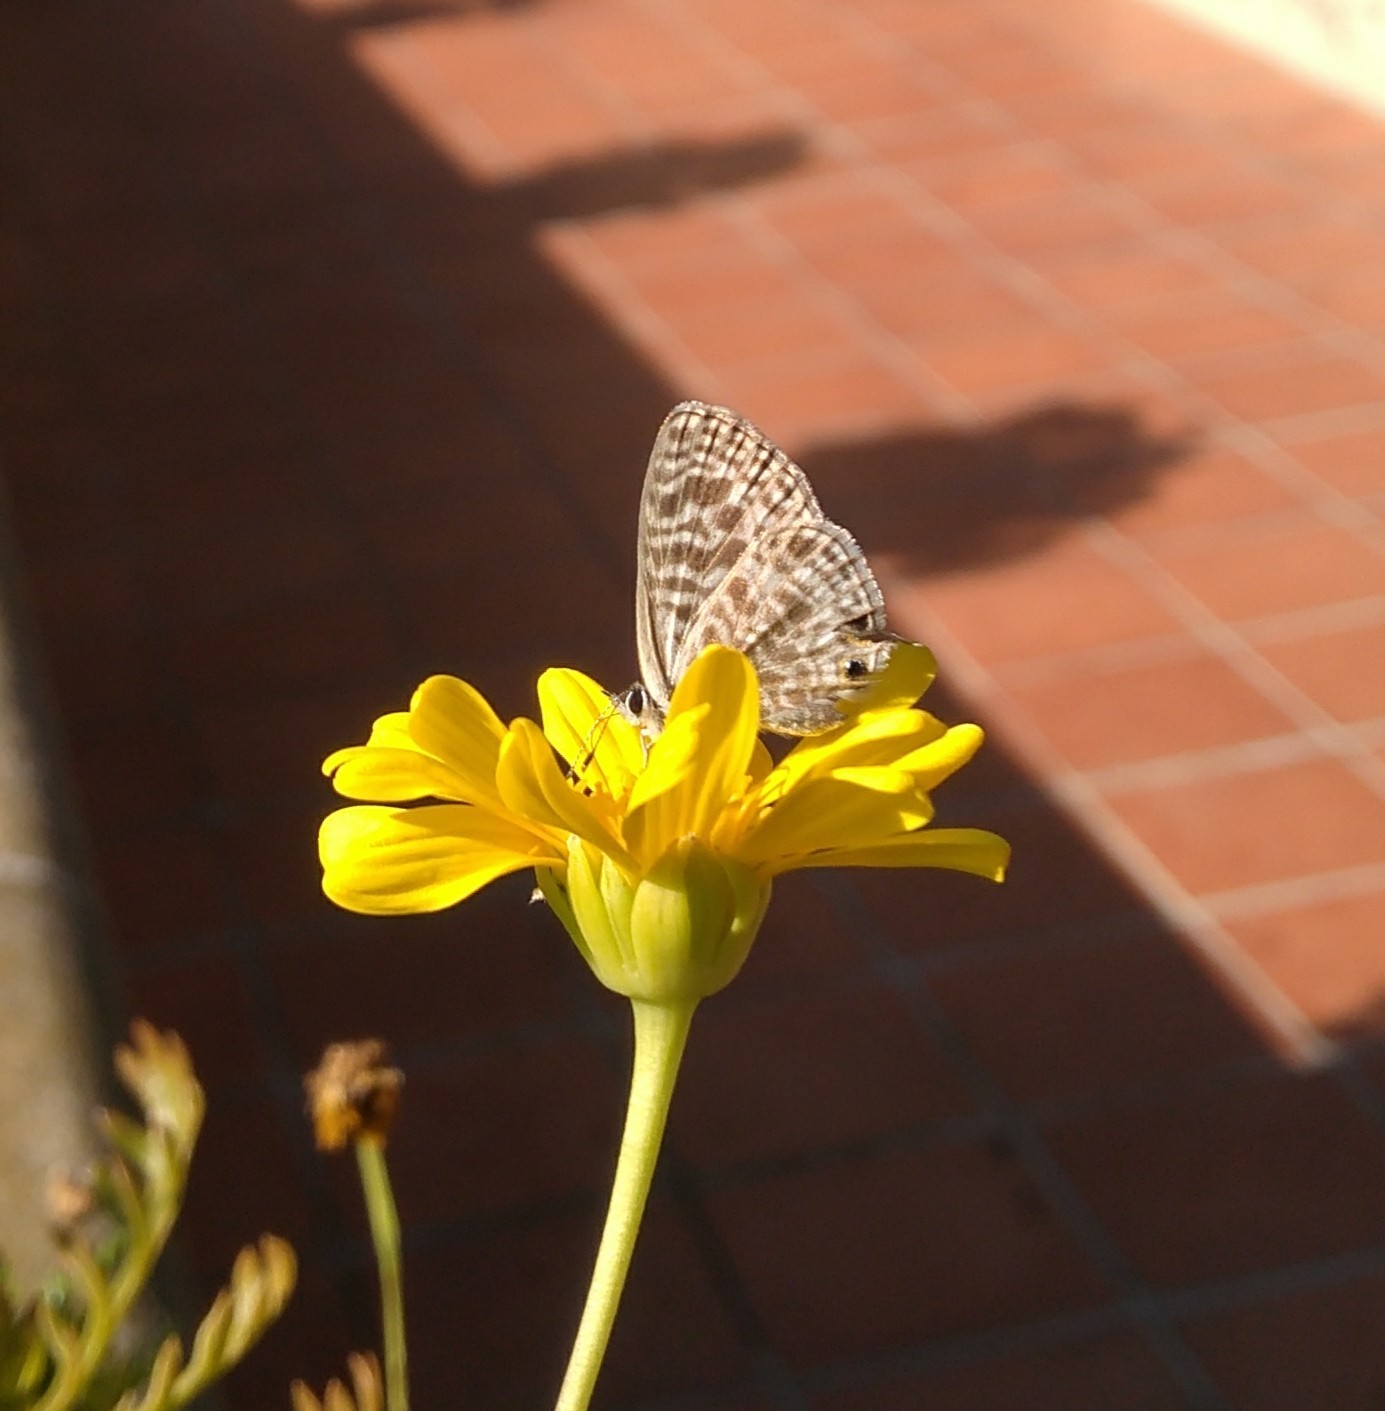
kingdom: Animalia
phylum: Arthropoda
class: Insecta
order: Lepidoptera
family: Lycaenidae
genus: Leptotes
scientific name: Leptotes pirithous
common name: Lang's short-tailed blue
